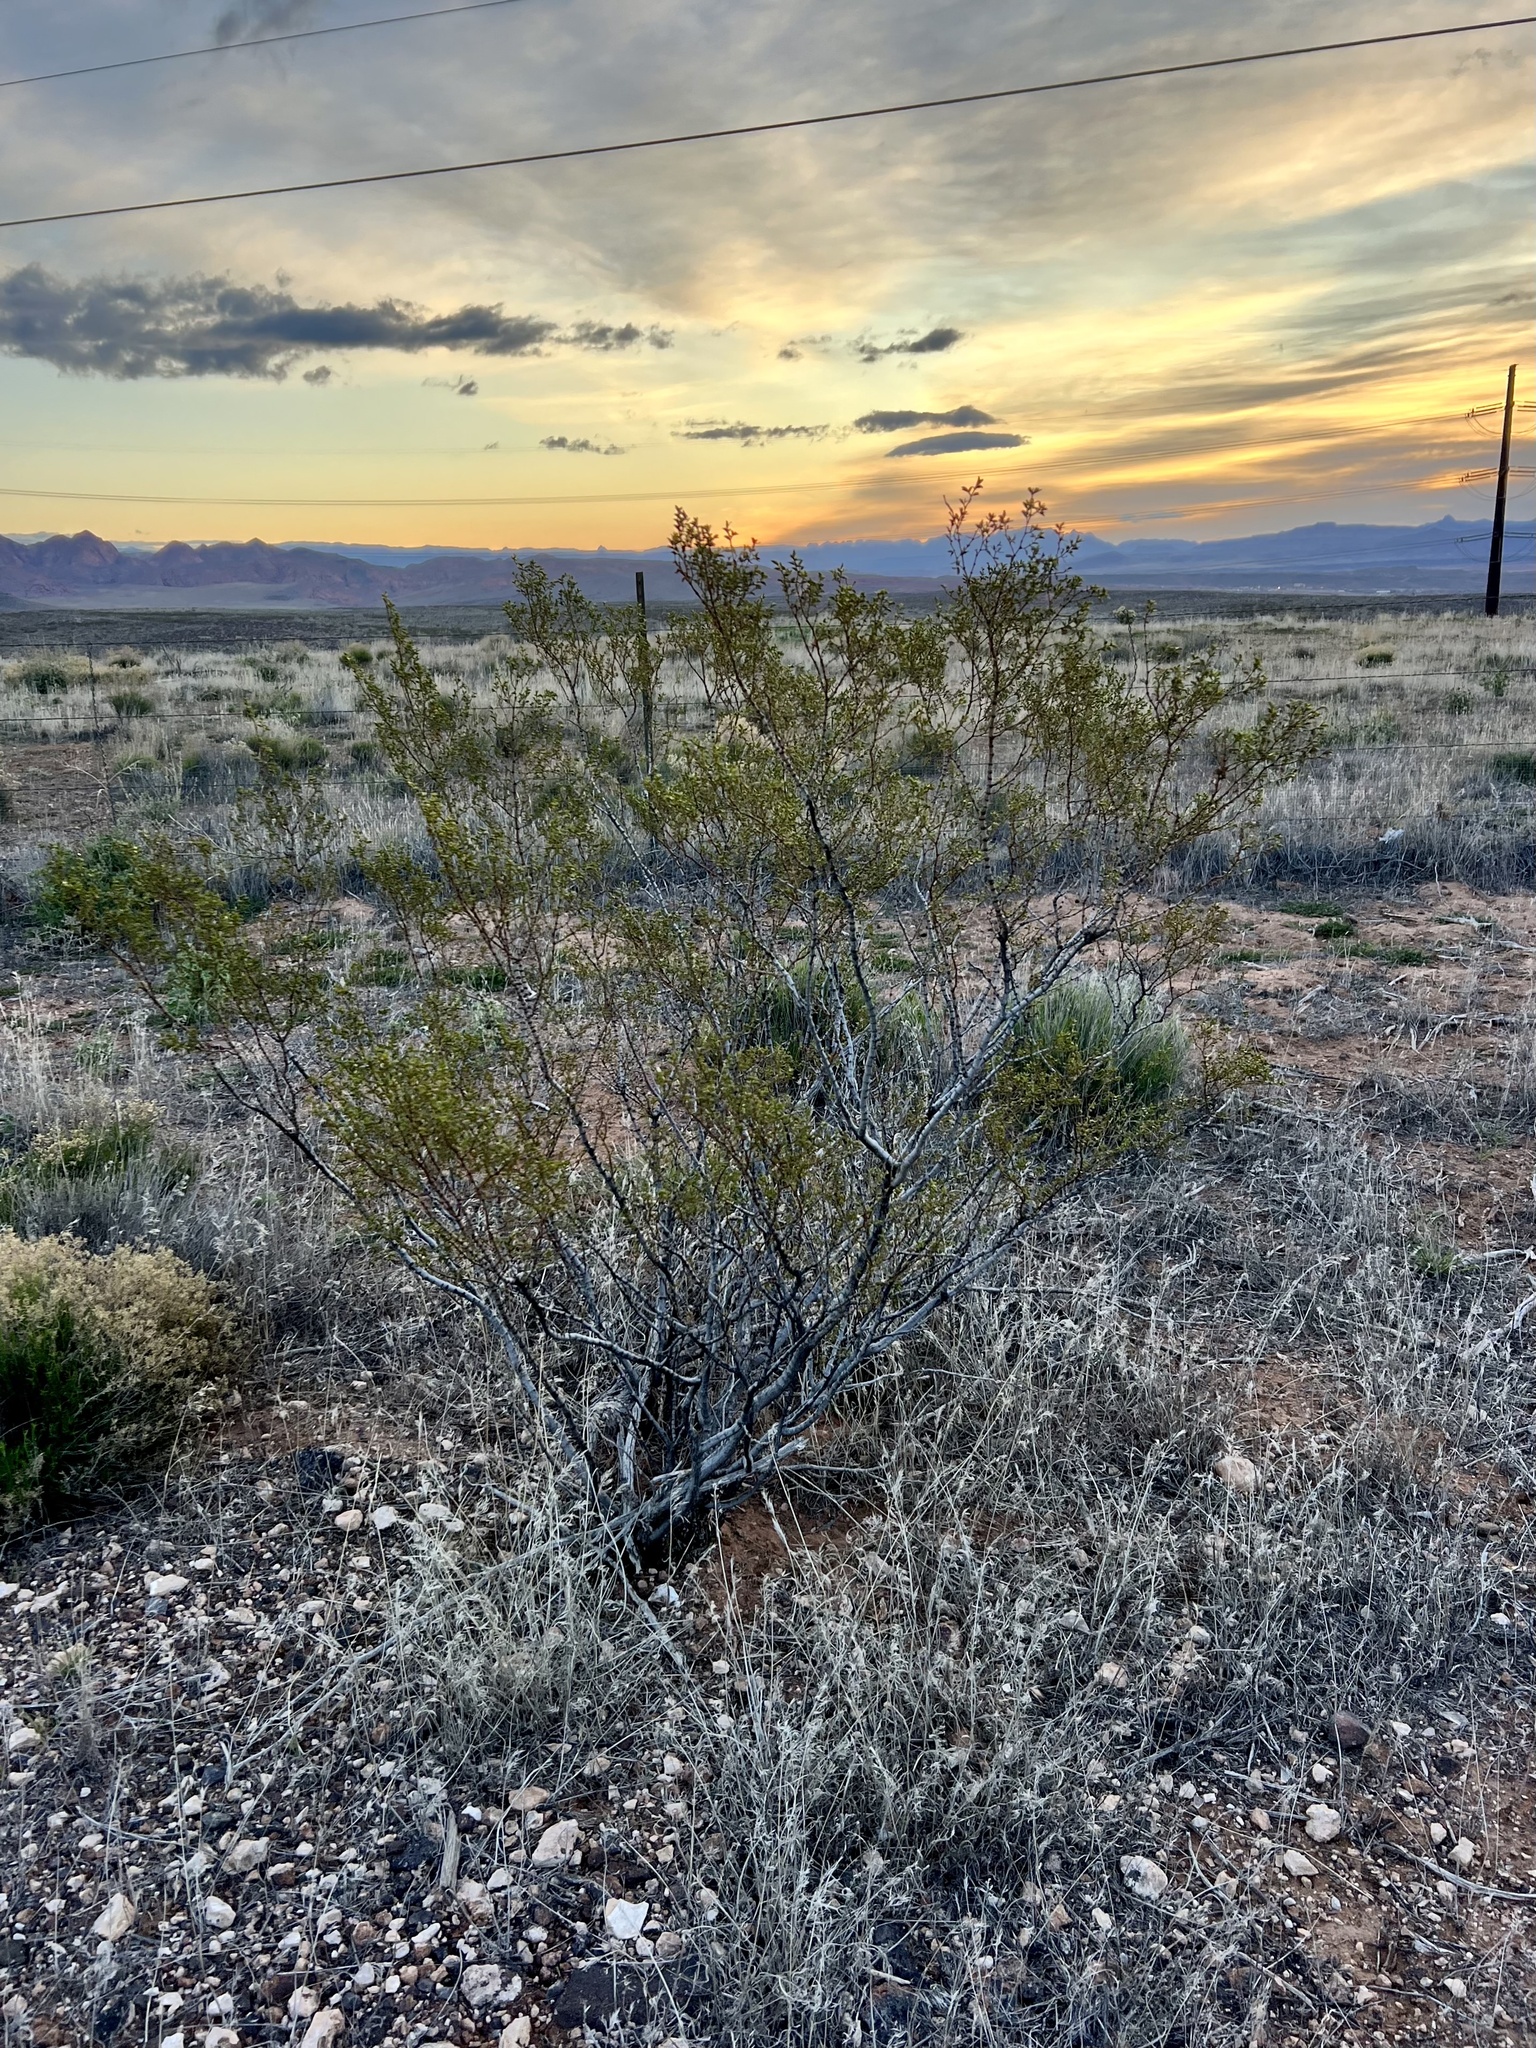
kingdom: Plantae
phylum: Tracheophyta
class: Magnoliopsida
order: Zygophyllales
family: Zygophyllaceae
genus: Larrea
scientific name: Larrea tridentata
